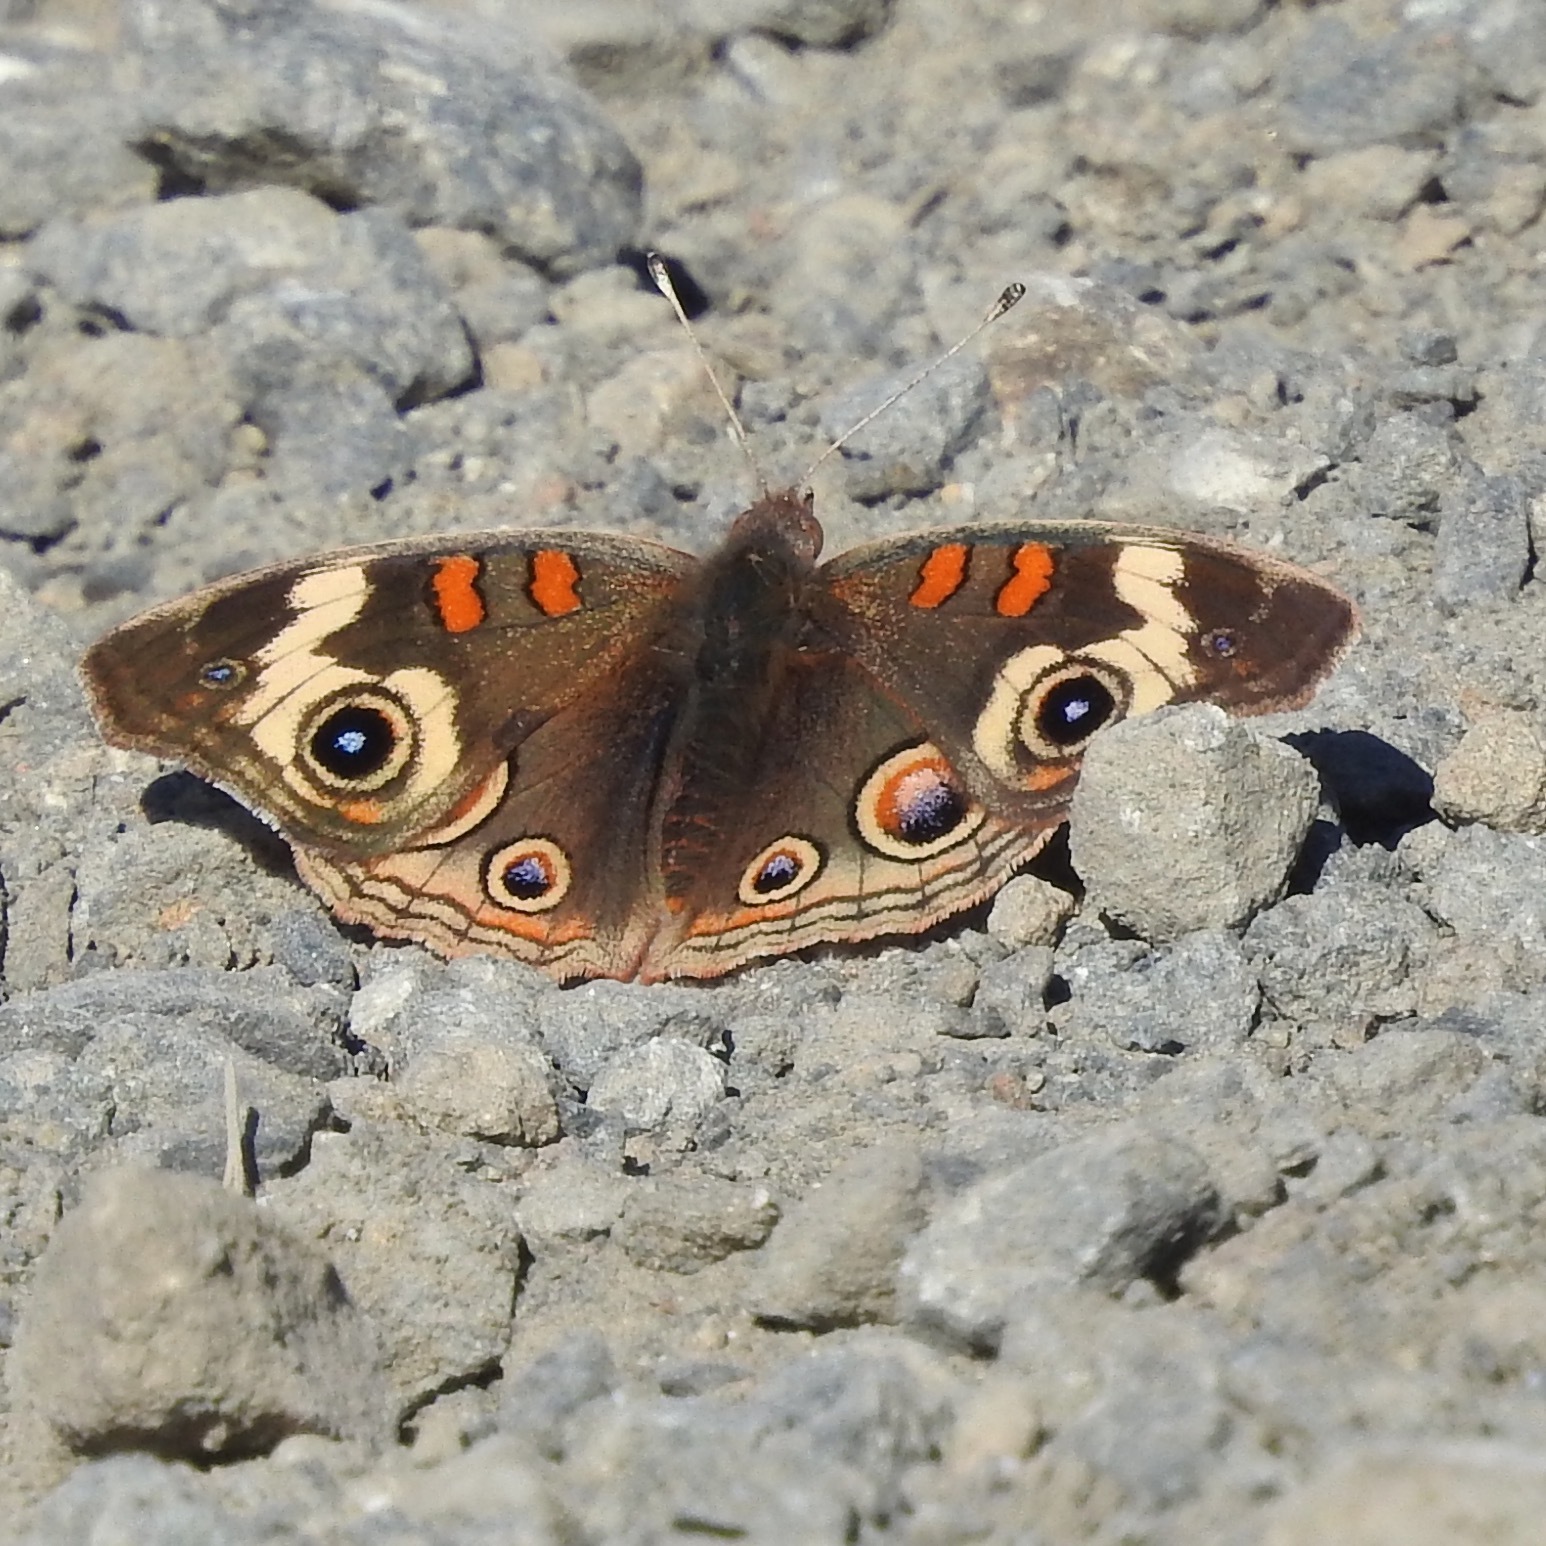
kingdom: Animalia
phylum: Arthropoda
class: Insecta
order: Lepidoptera
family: Nymphalidae
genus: Junonia
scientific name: Junonia grisea
